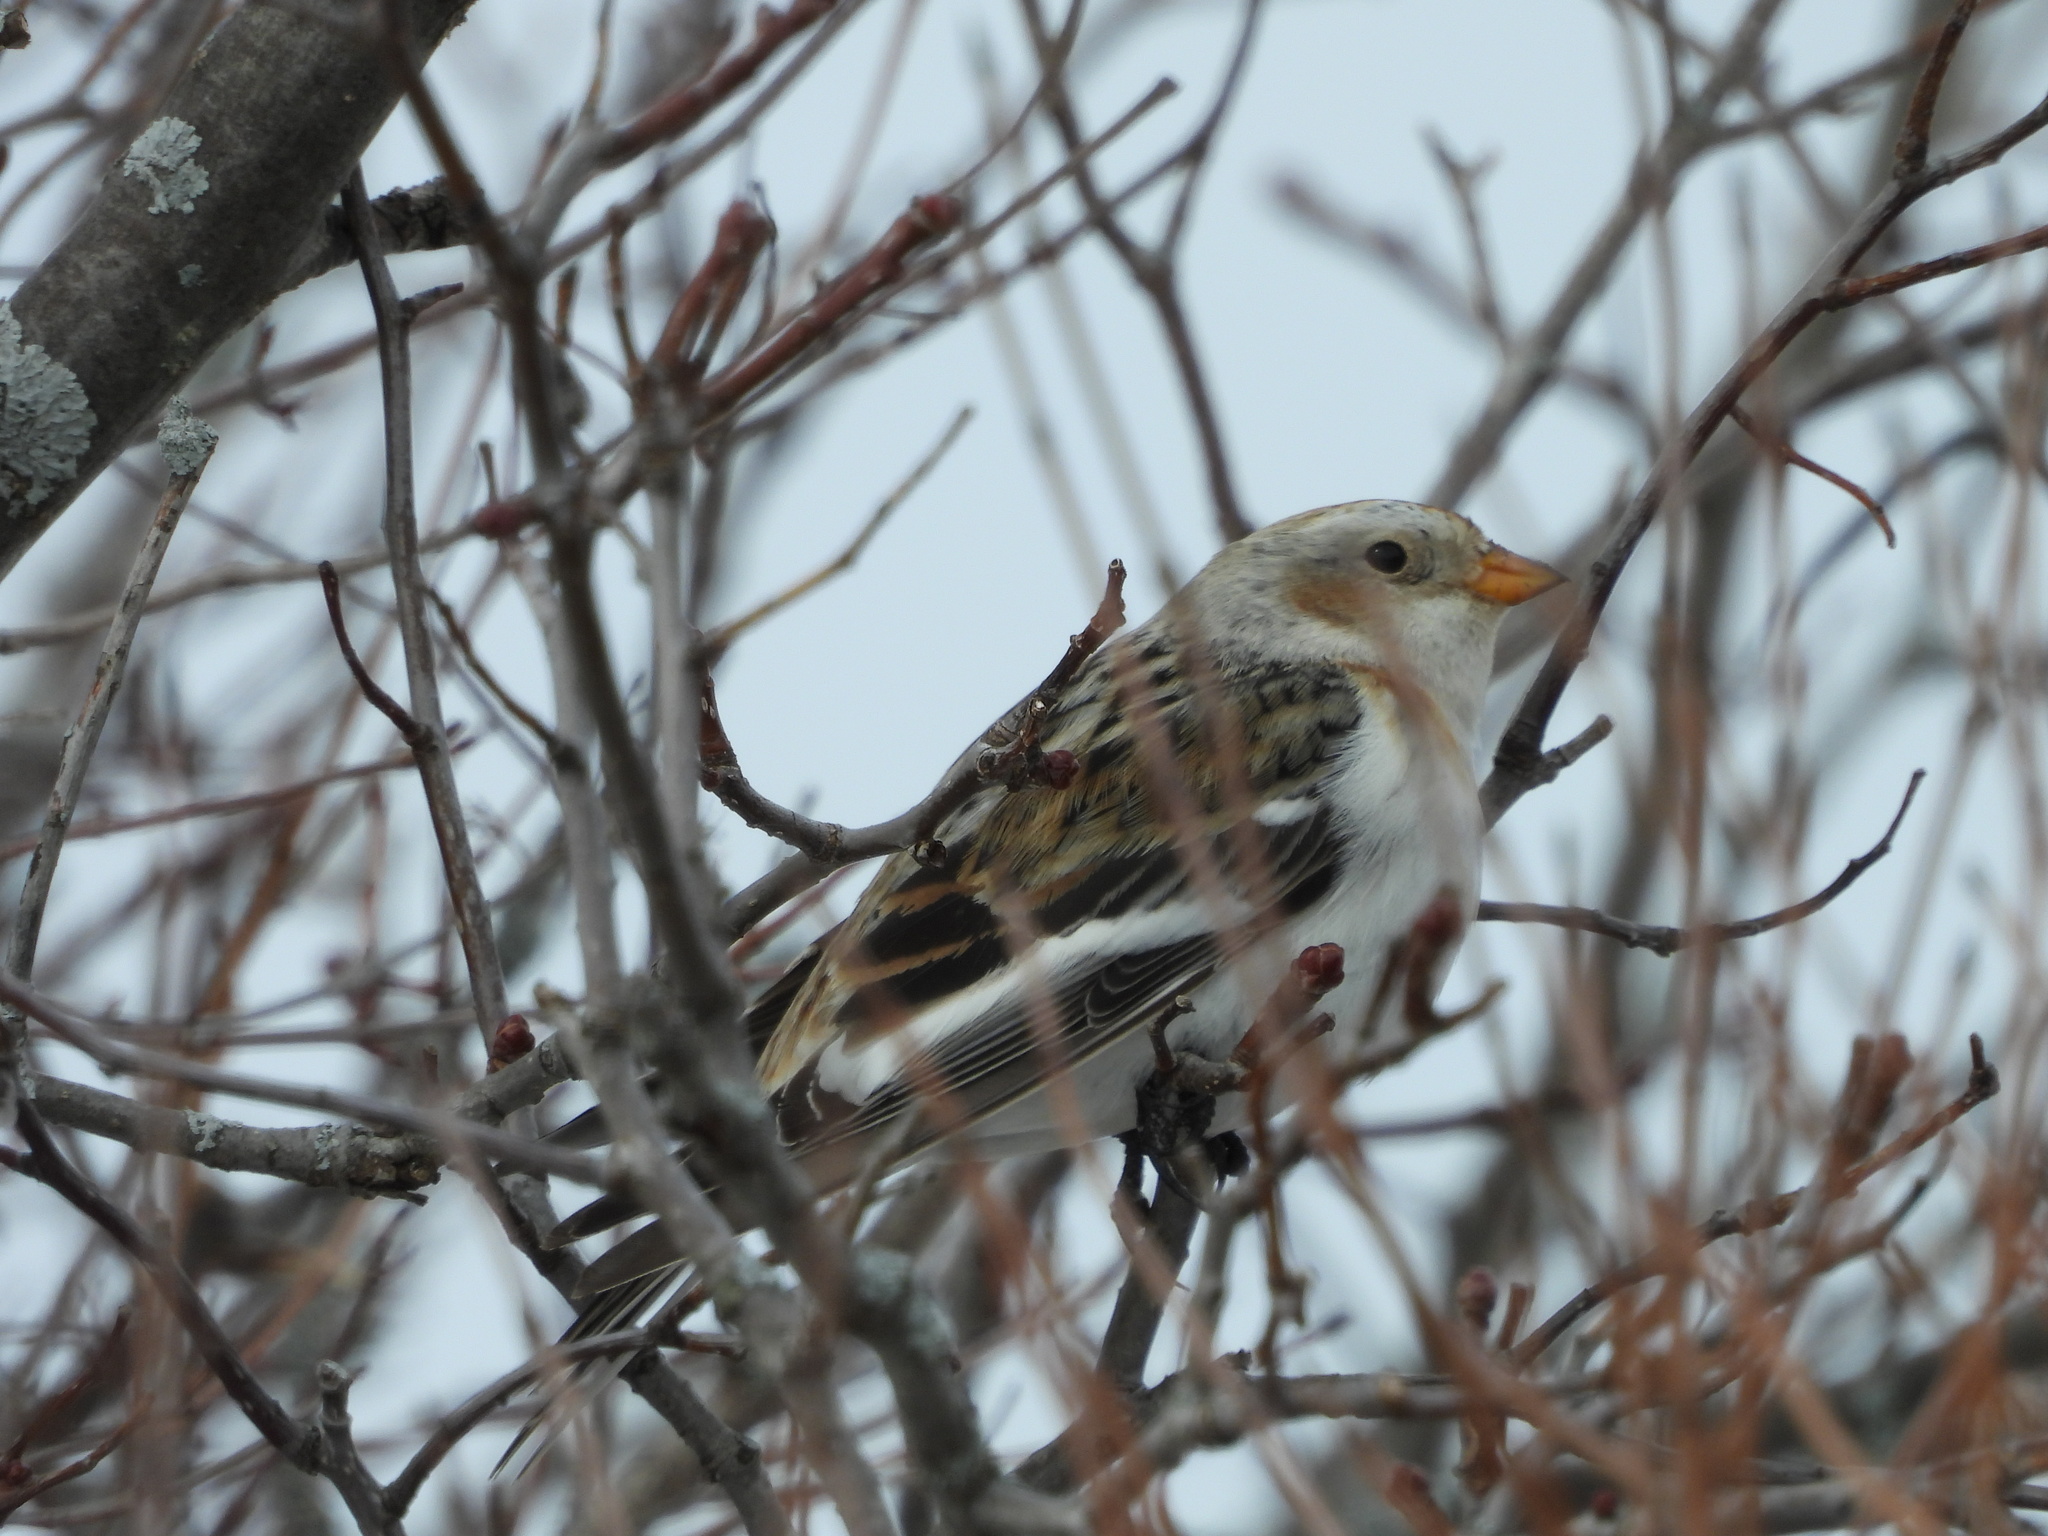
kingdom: Animalia
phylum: Chordata
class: Aves
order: Passeriformes
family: Calcariidae
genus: Plectrophenax
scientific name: Plectrophenax nivalis
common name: Snow bunting
